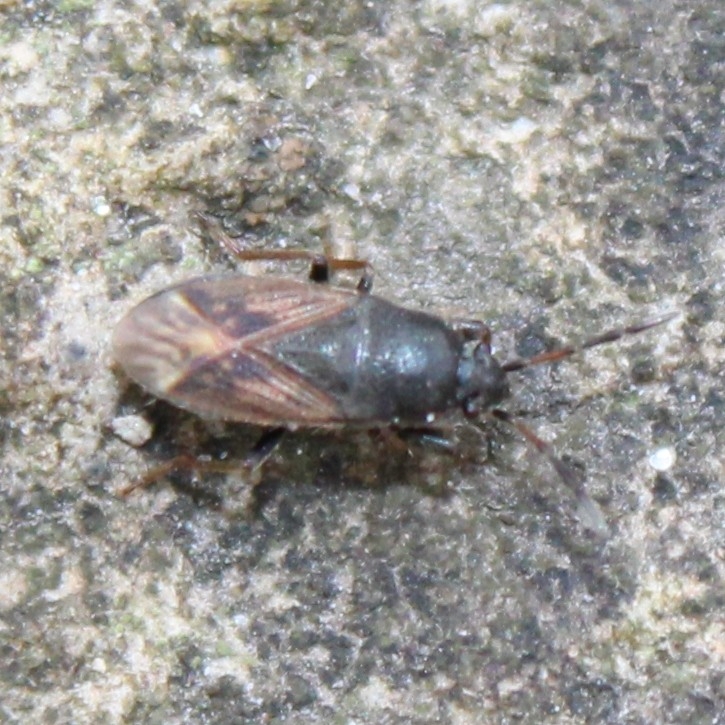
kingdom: Animalia
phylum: Arthropoda
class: Insecta
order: Hemiptera
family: Rhyparochromidae
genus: Megalonotus
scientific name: Megalonotus sabulicola
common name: Seed bug
